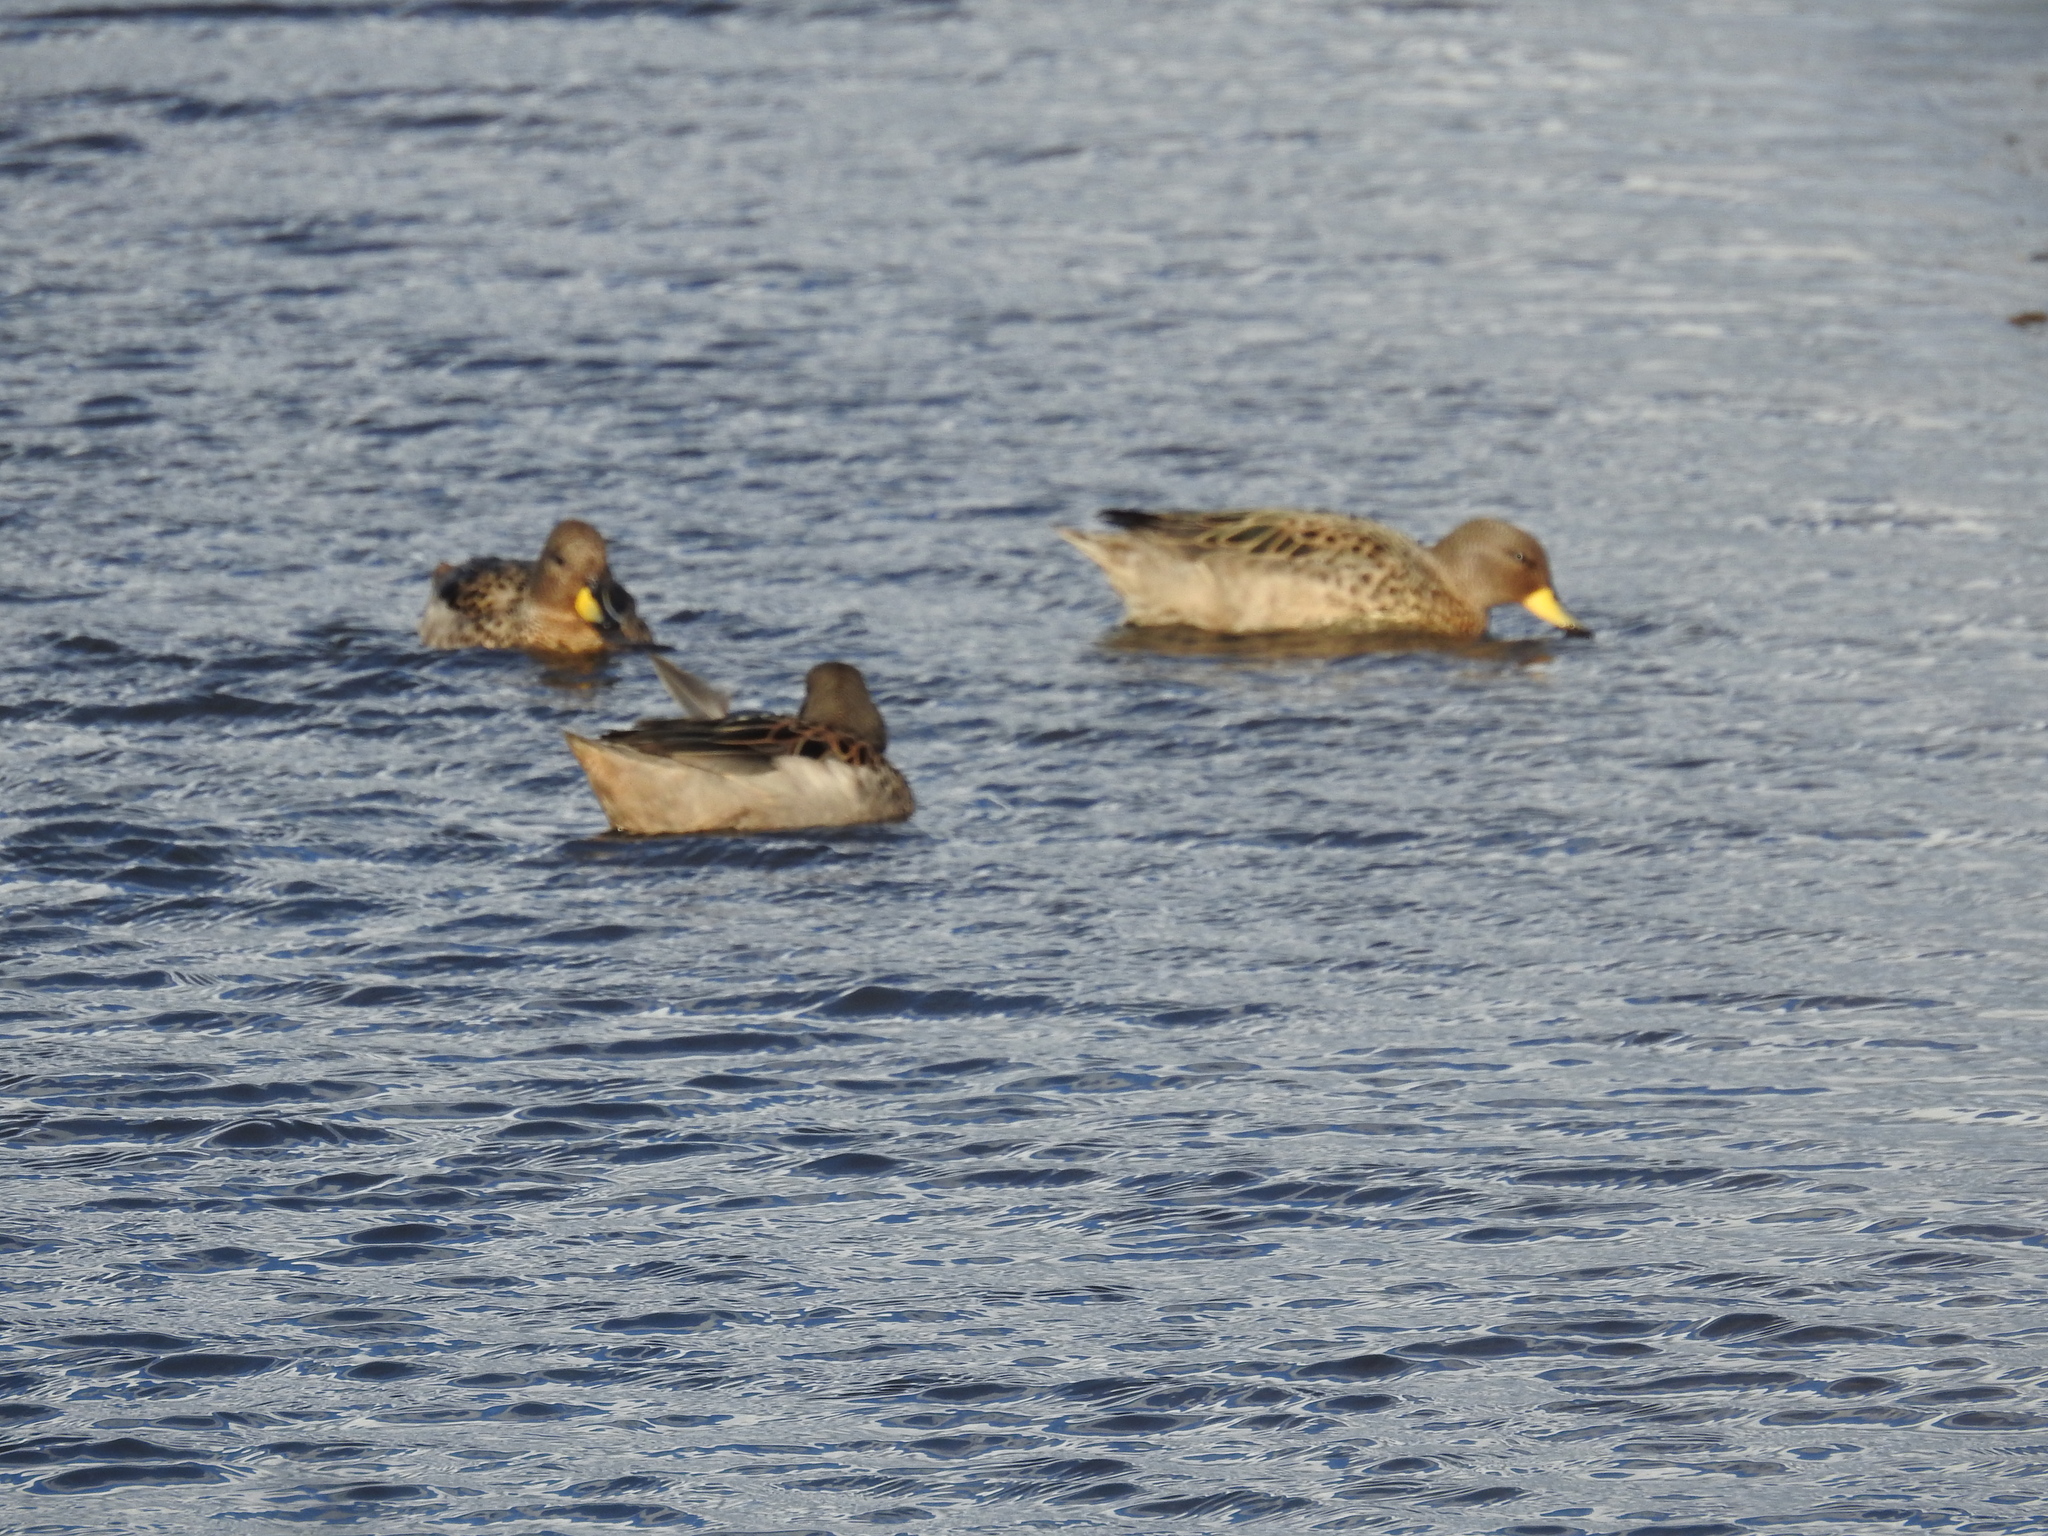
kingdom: Animalia
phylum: Chordata
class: Aves
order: Anseriformes
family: Anatidae
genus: Anas
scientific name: Anas flavirostris
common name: Yellow-billed teal
